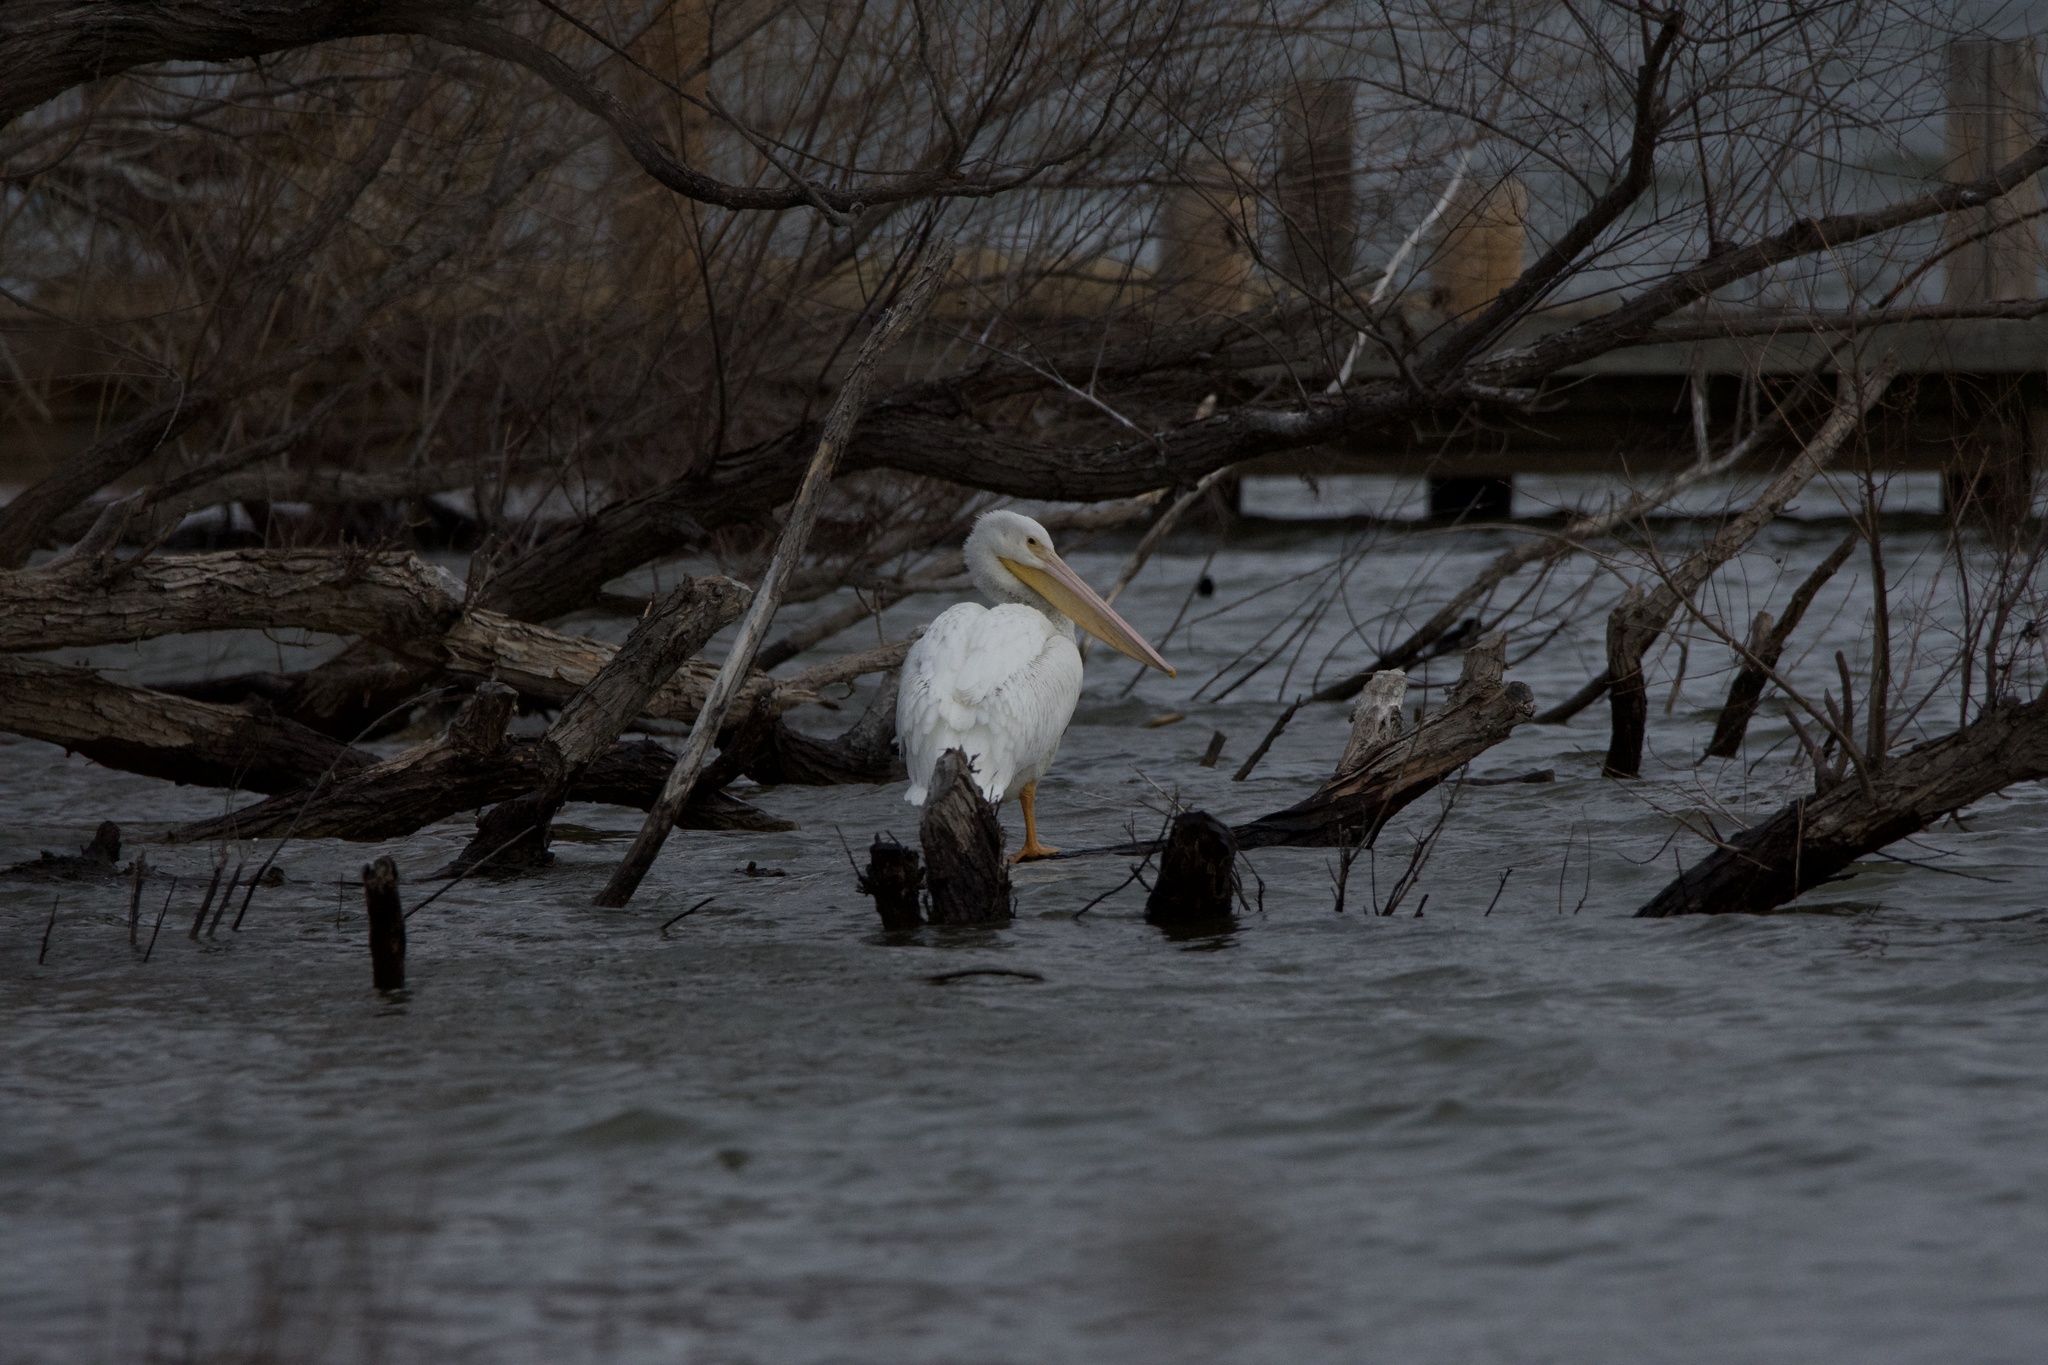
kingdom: Animalia
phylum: Chordata
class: Aves
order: Pelecaniformes
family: Pelecanidae
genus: Pelecanus
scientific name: Pelecanus erythrorhynchos
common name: American white pelican
